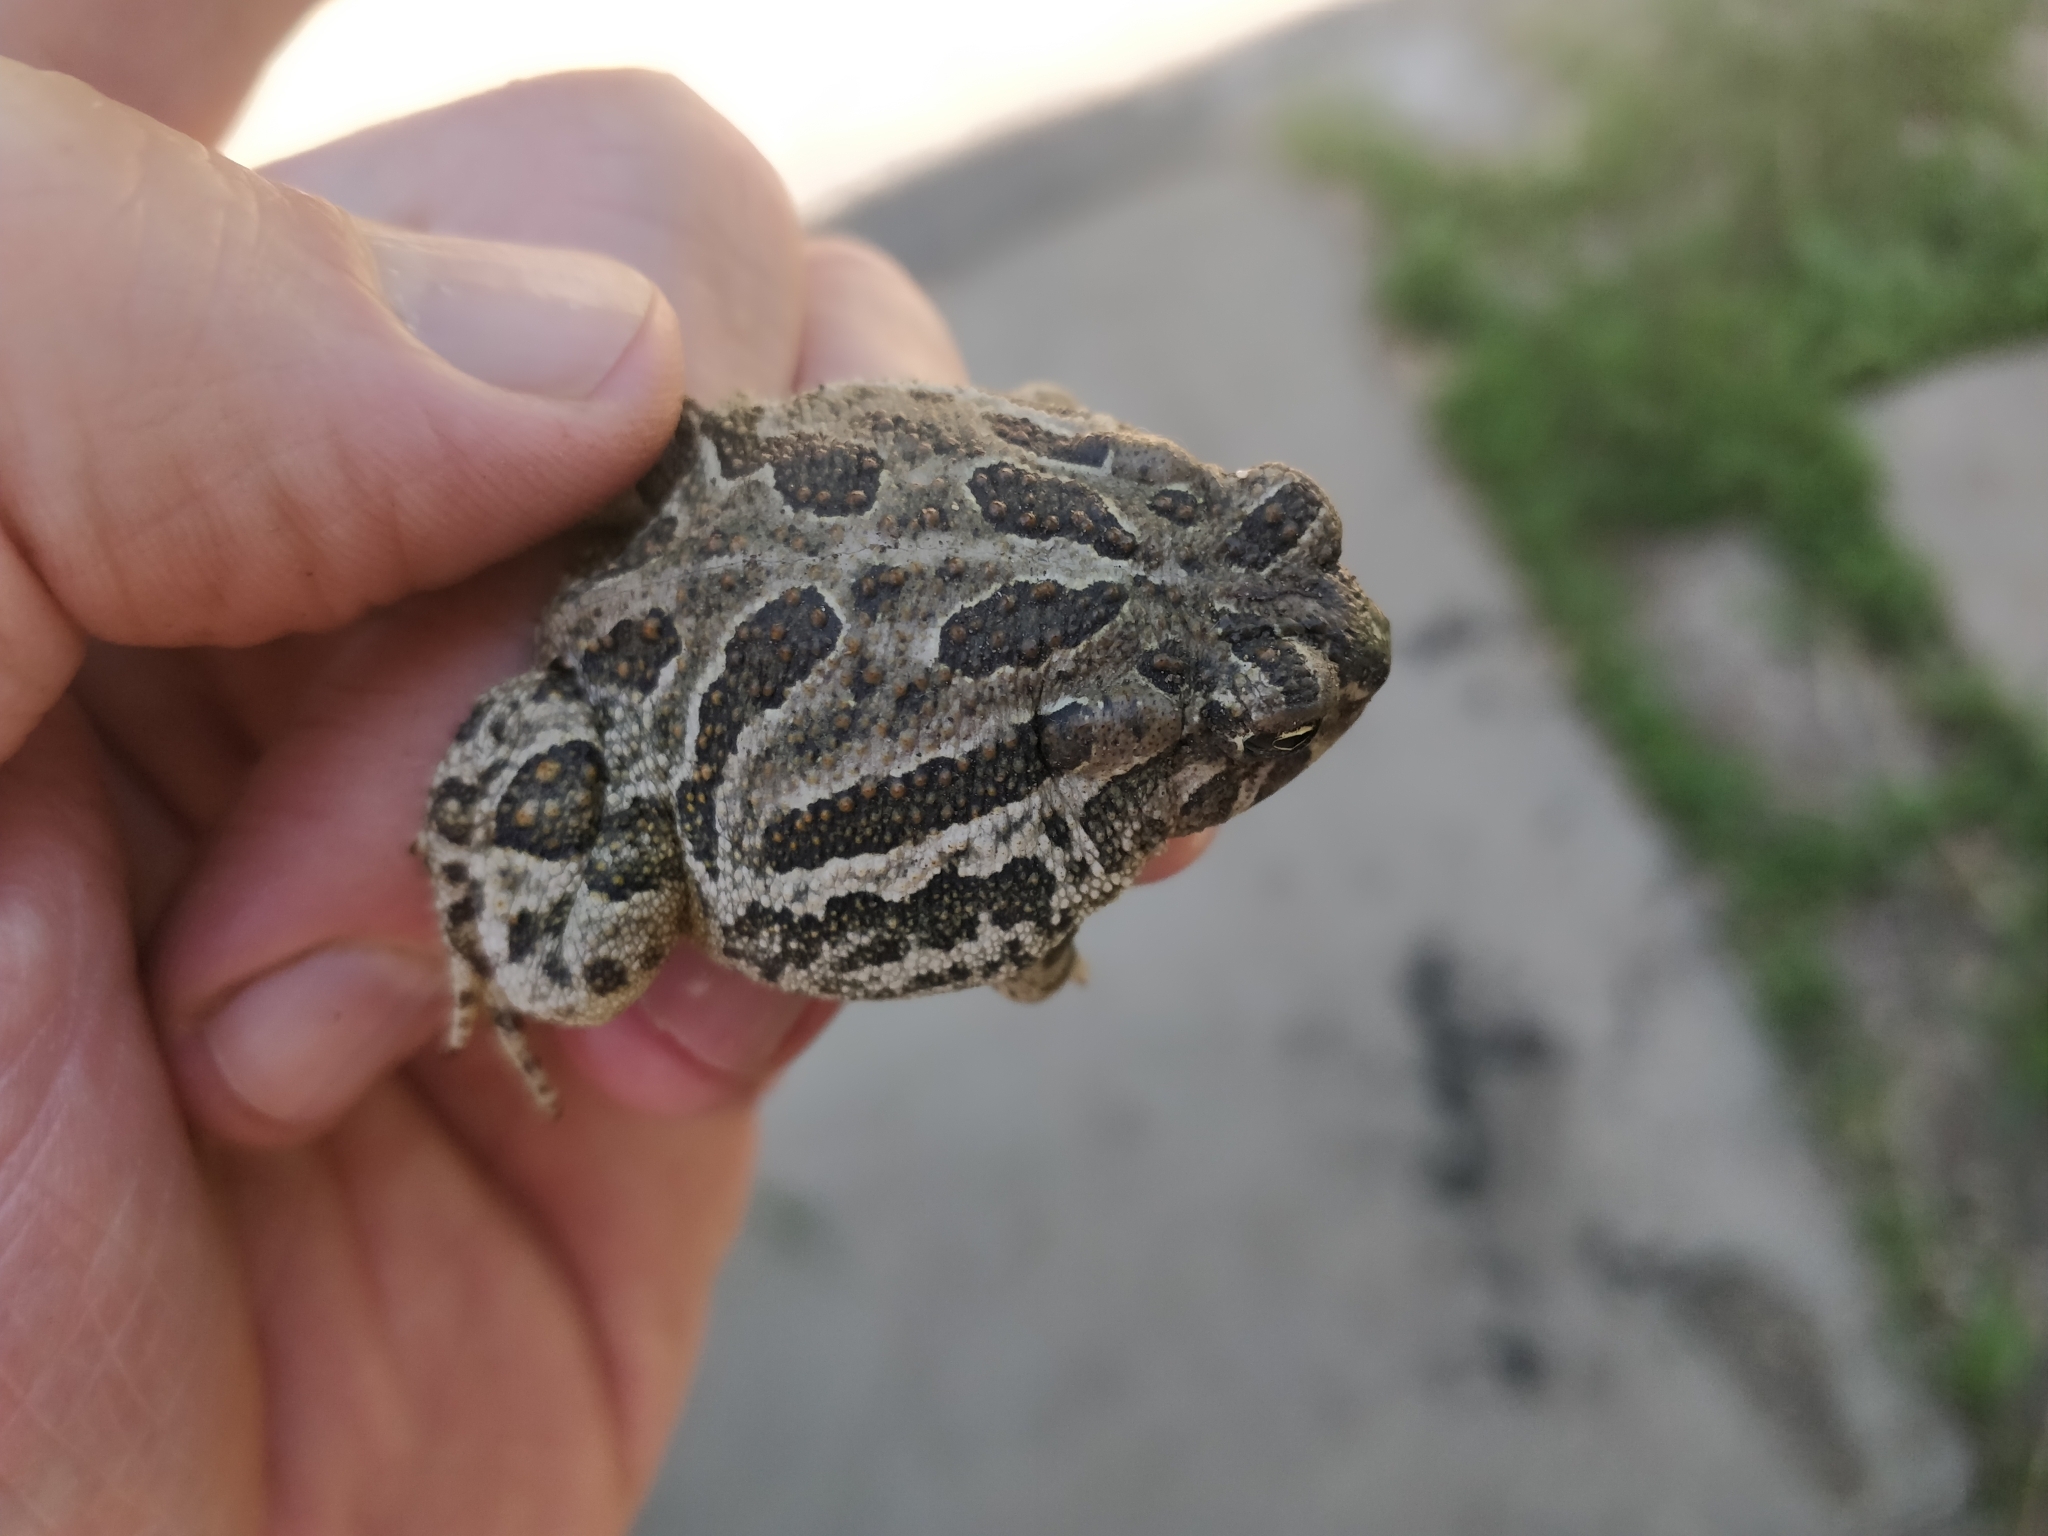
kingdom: Animalia
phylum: Chordata
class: Amphibia
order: Anura
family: Bufonidae
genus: Anaxyrus
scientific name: Anaxyrus cognatus
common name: Great plains toad
